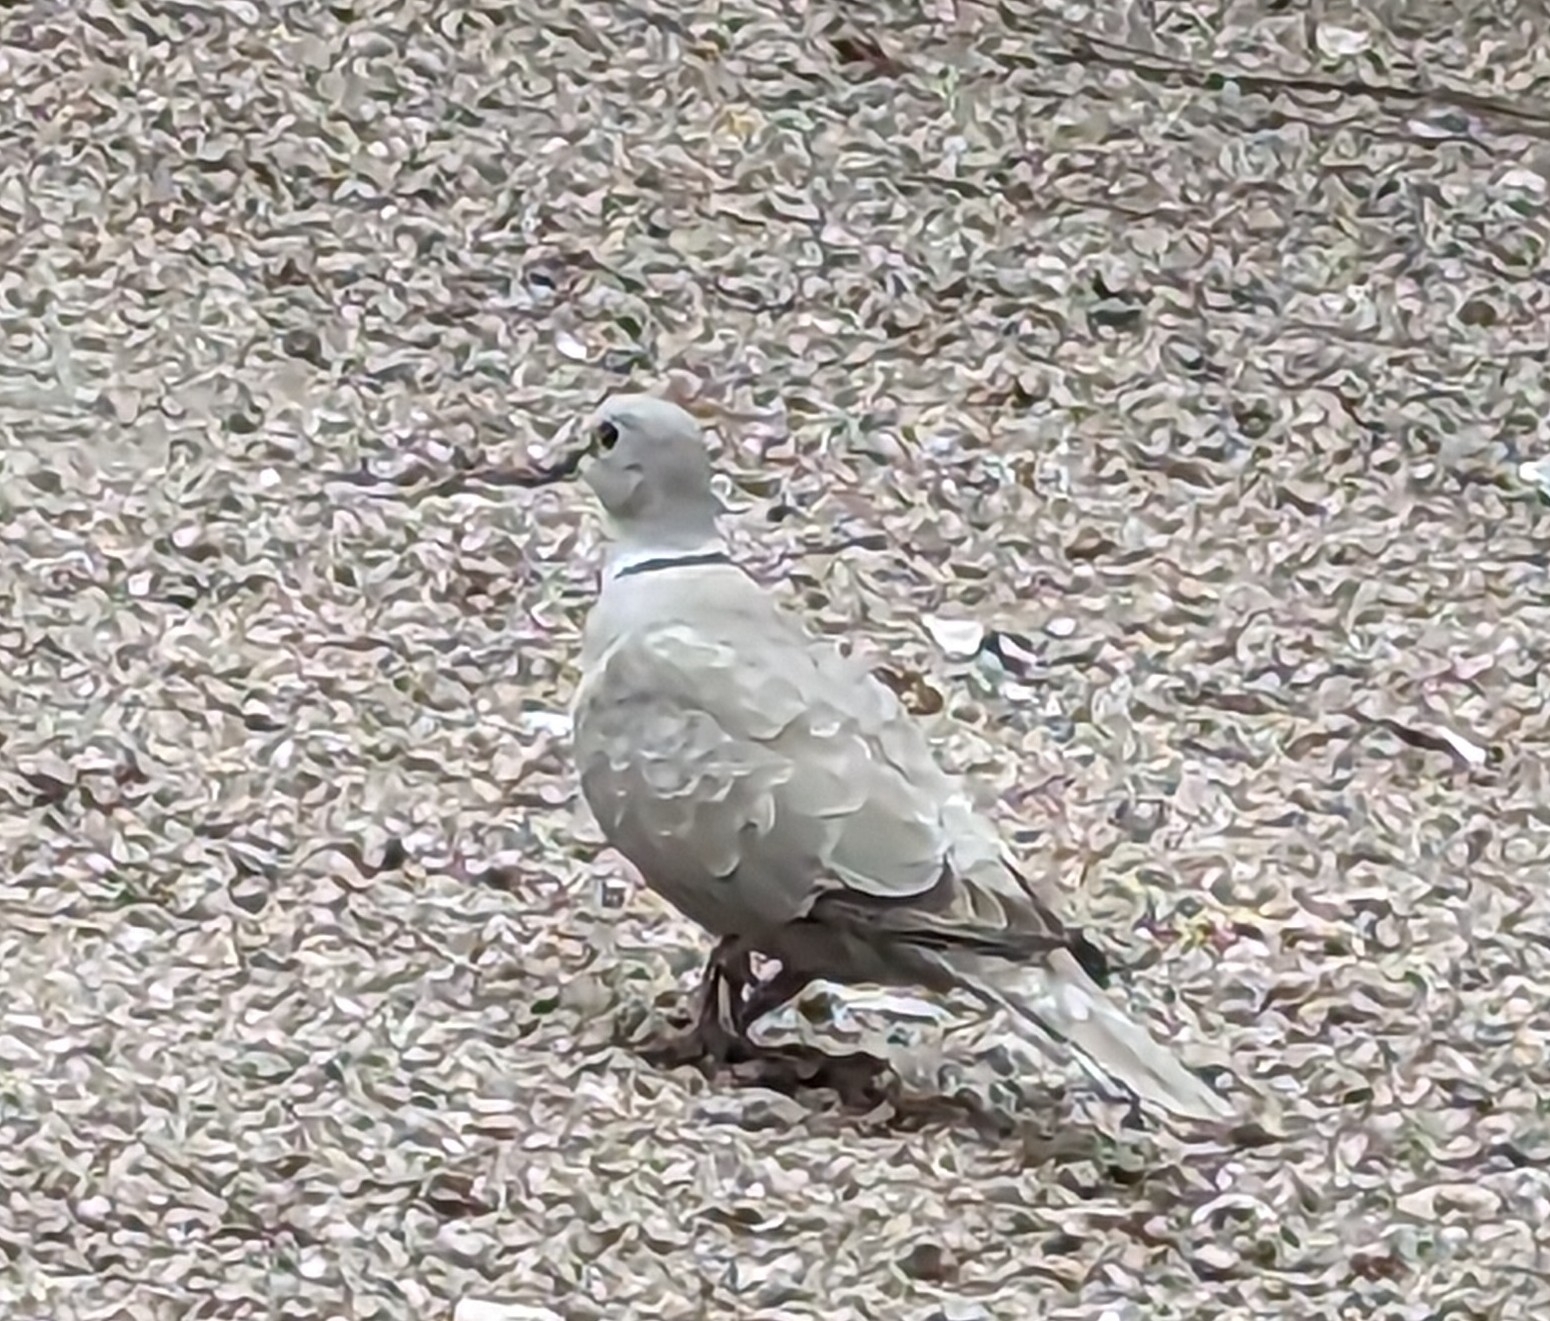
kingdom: Animalia
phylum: Chordata
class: Aves
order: Columbiformes
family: Columbidae
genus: Streptopelia
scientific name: Streptopelia decaocto
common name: Eurasian collared dove
